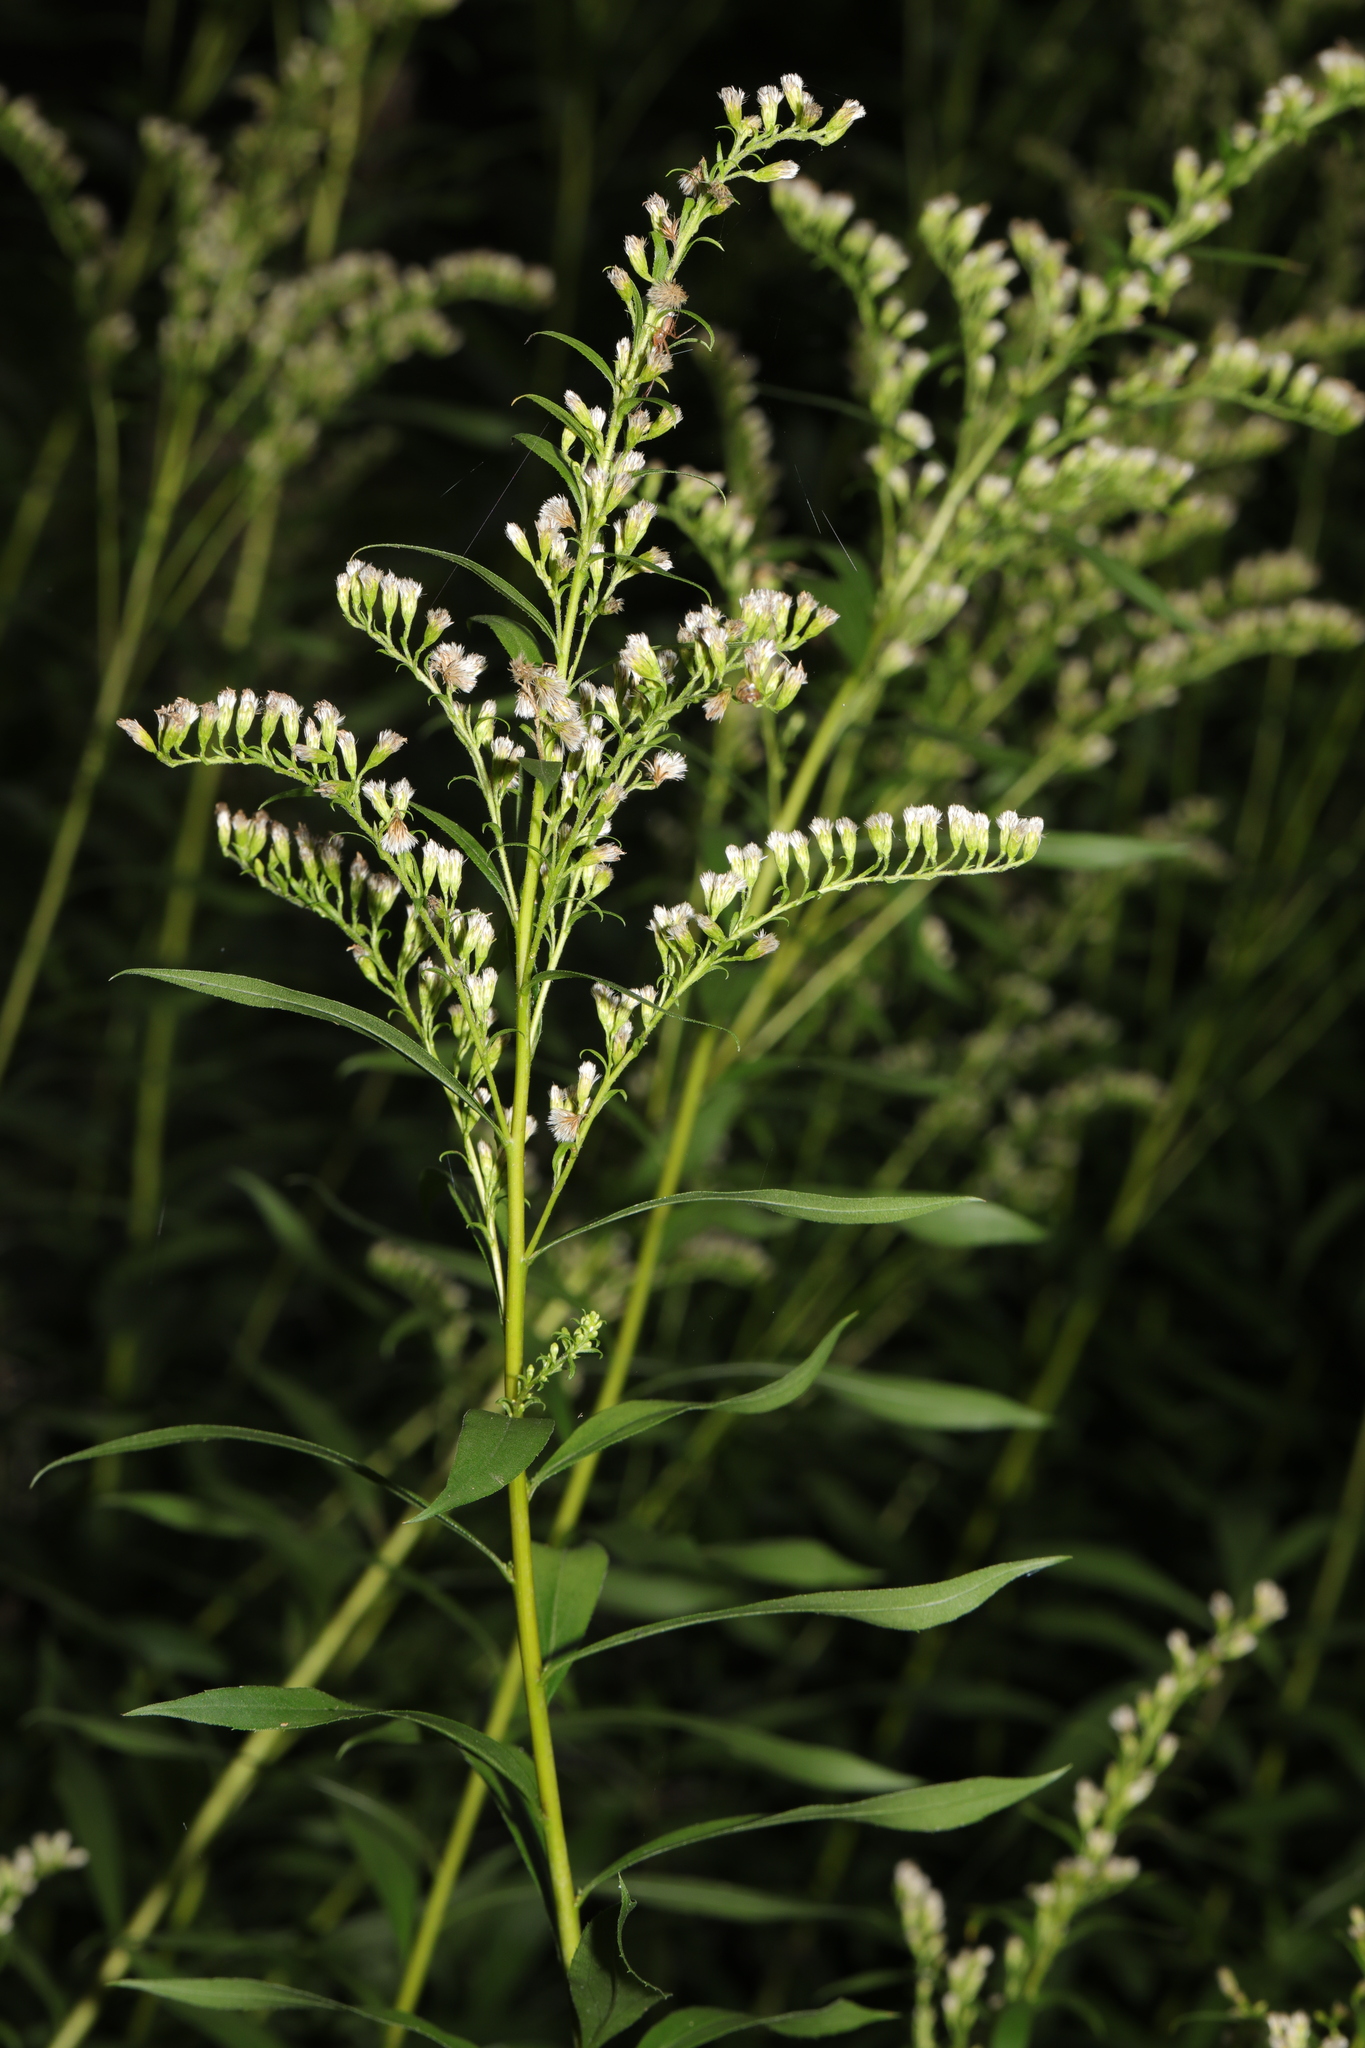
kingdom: Plantae
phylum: Tracheophyta
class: Magnoliopsida
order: Asterales
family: Asteraceae
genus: Solidago
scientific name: Solidago canadensis
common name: Canada goldenrod
